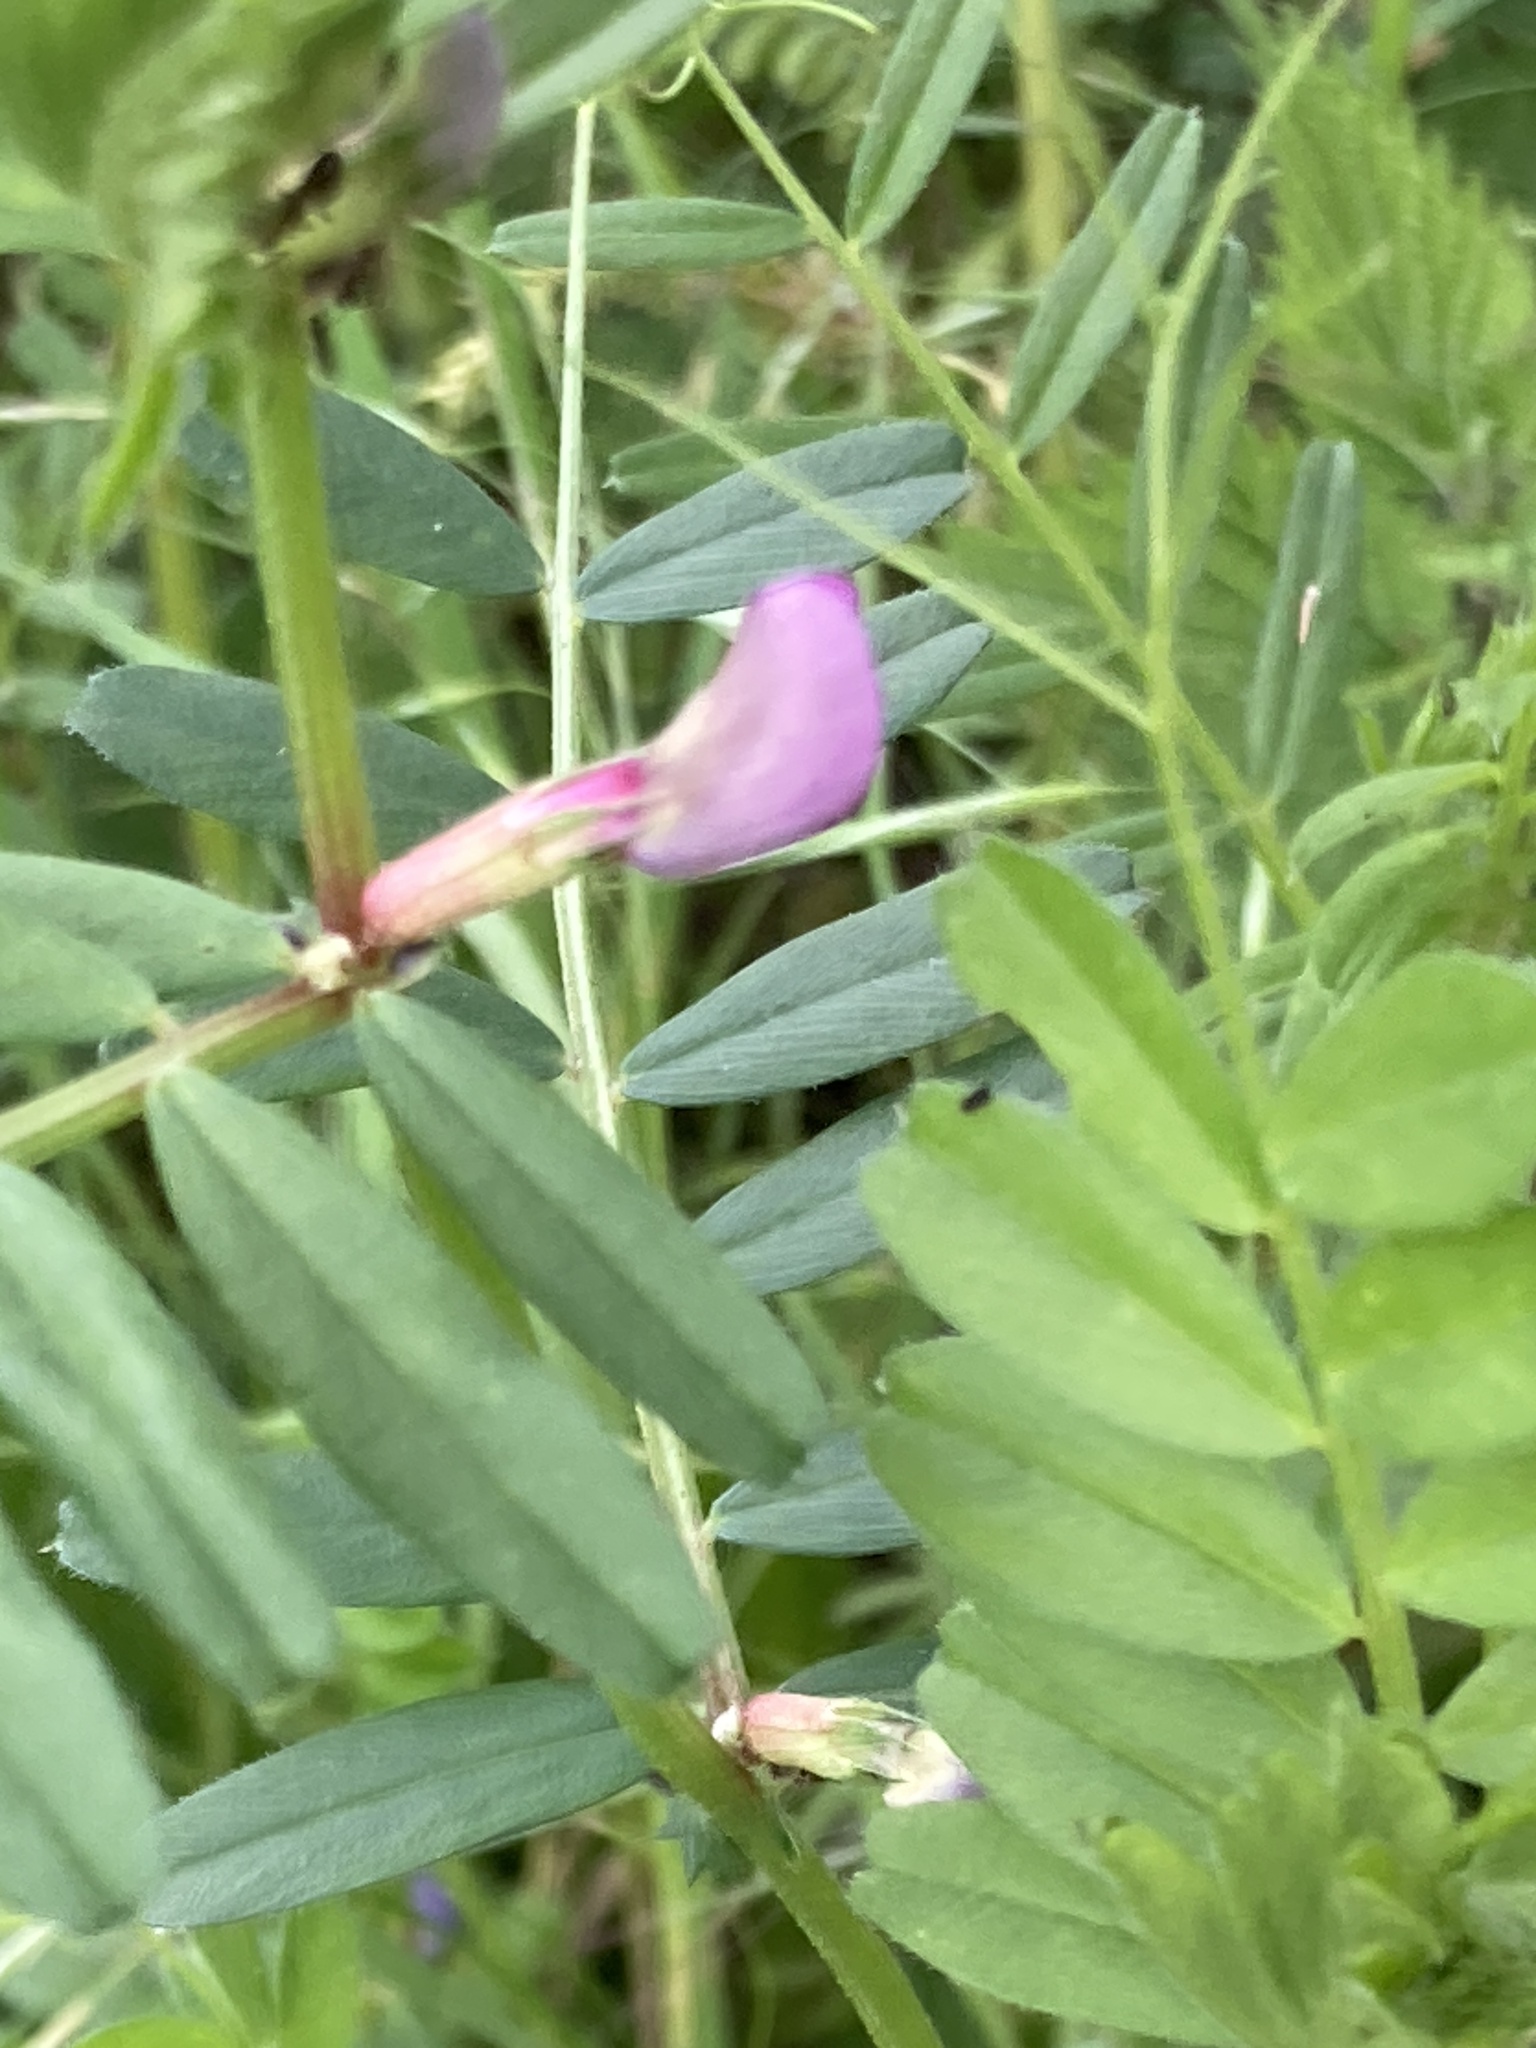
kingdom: Plantae
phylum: Tracheophyta
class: Magnoliopsida
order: Fabales
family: Fabaceae
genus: Vicia
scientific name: Vicia sativa
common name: Garden vetch
